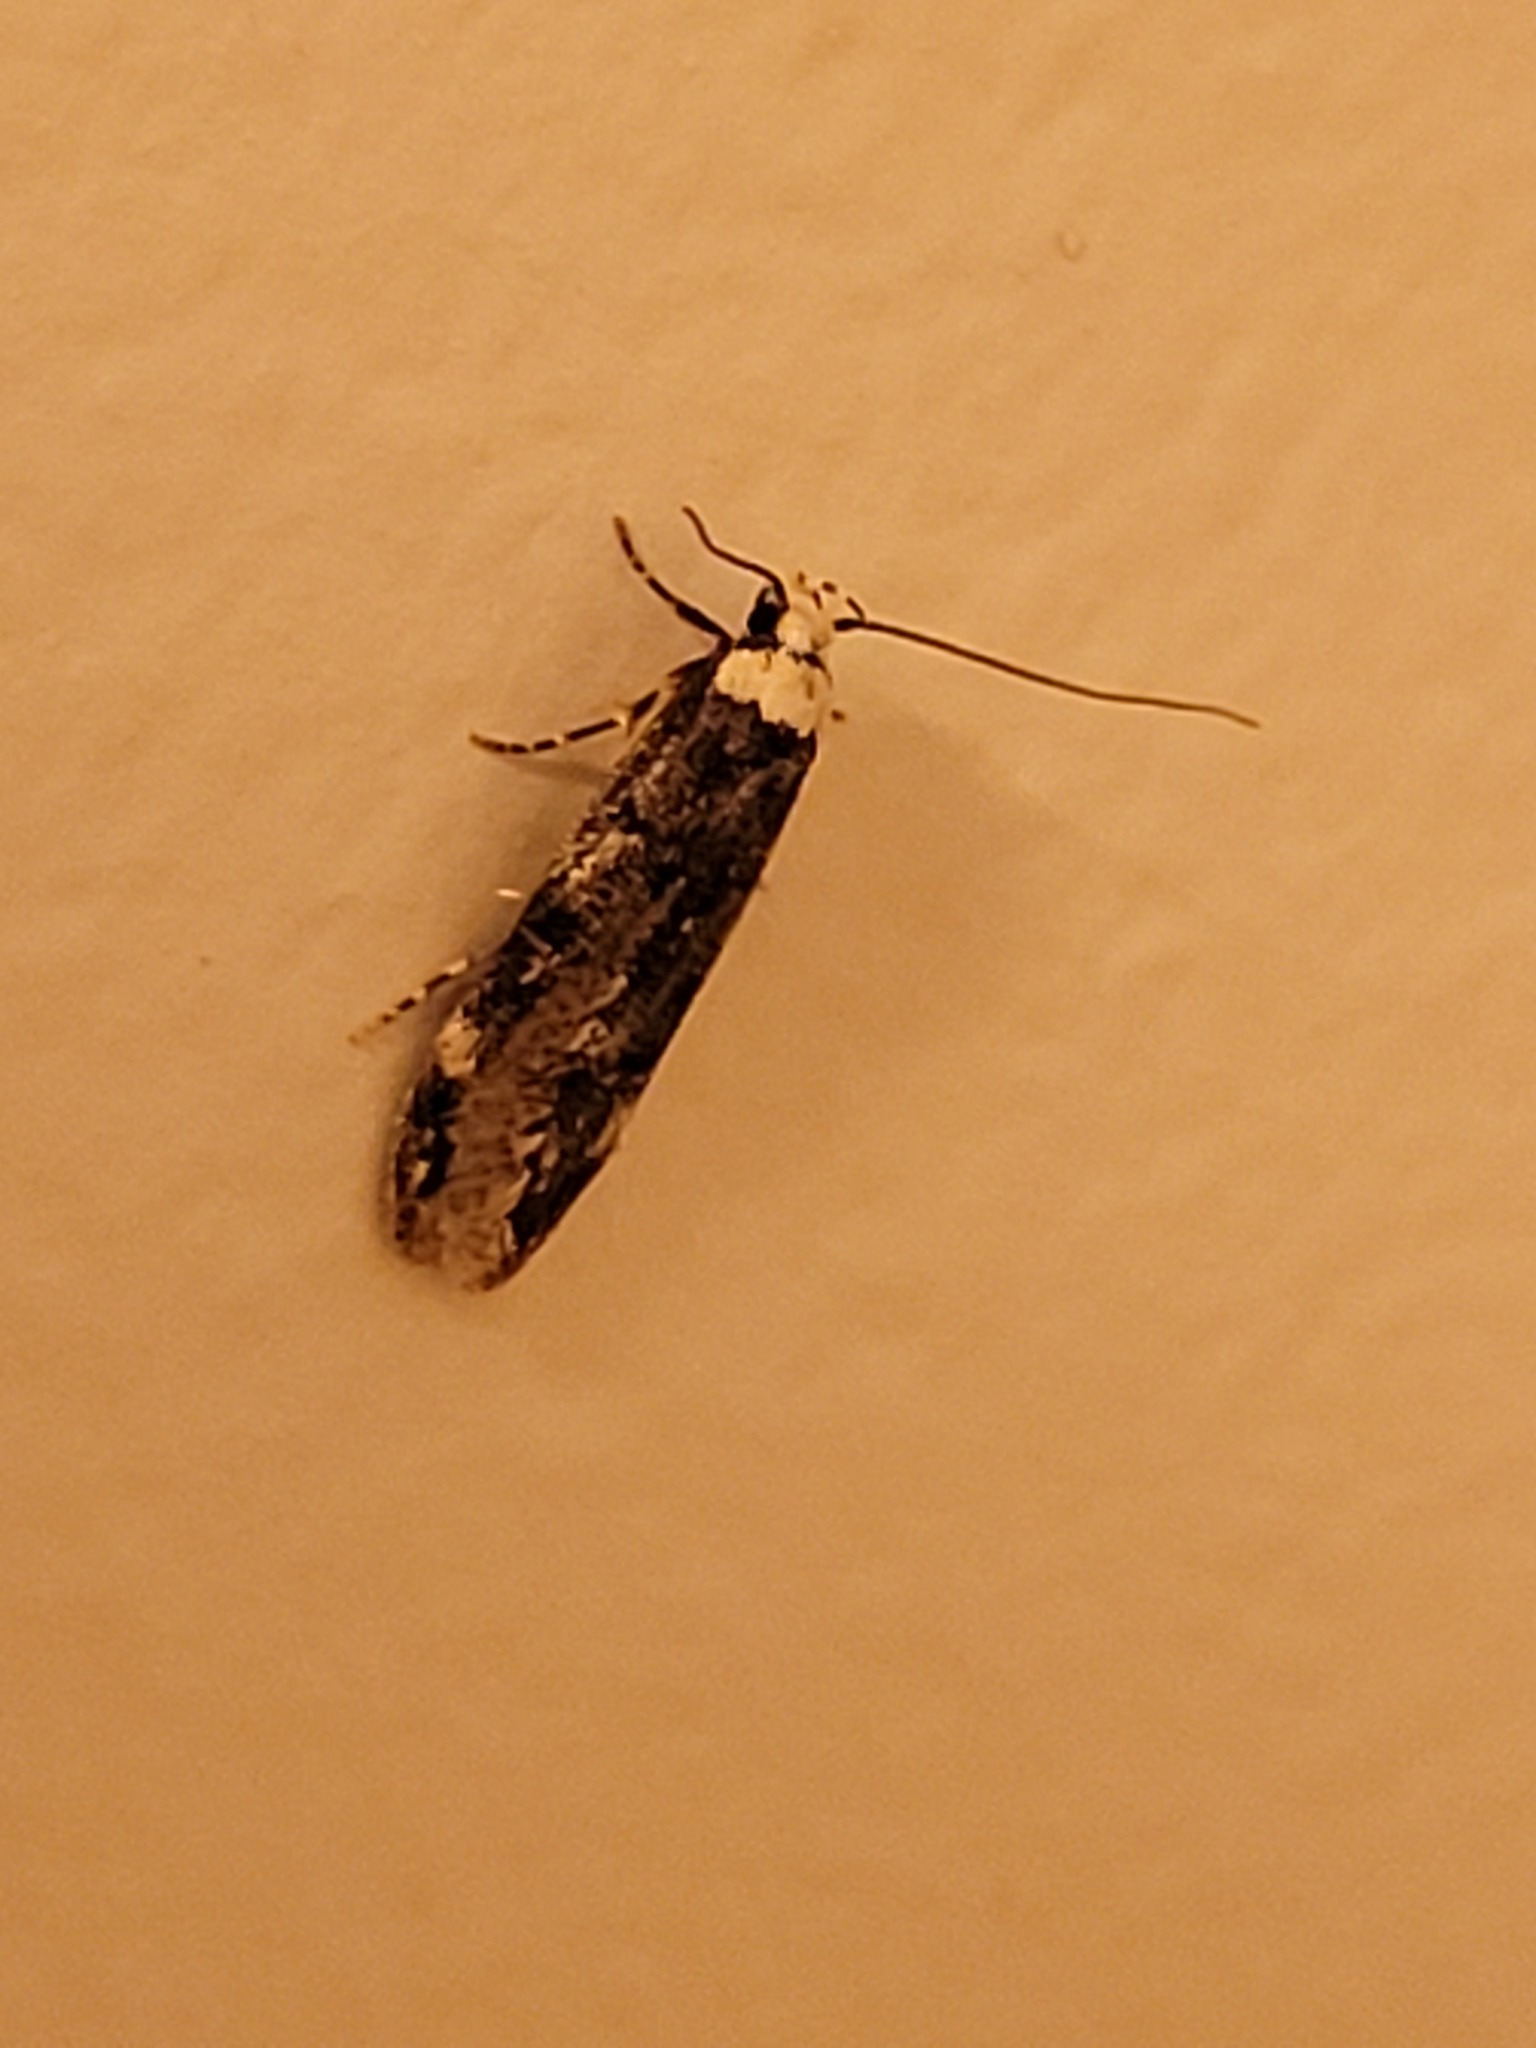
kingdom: Animalia
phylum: Arthropoda
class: Insecta
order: Lepidoptera
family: Oecophoridae
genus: Endrosis
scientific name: Endrosis sarcitrella
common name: White-shouldered house moth
